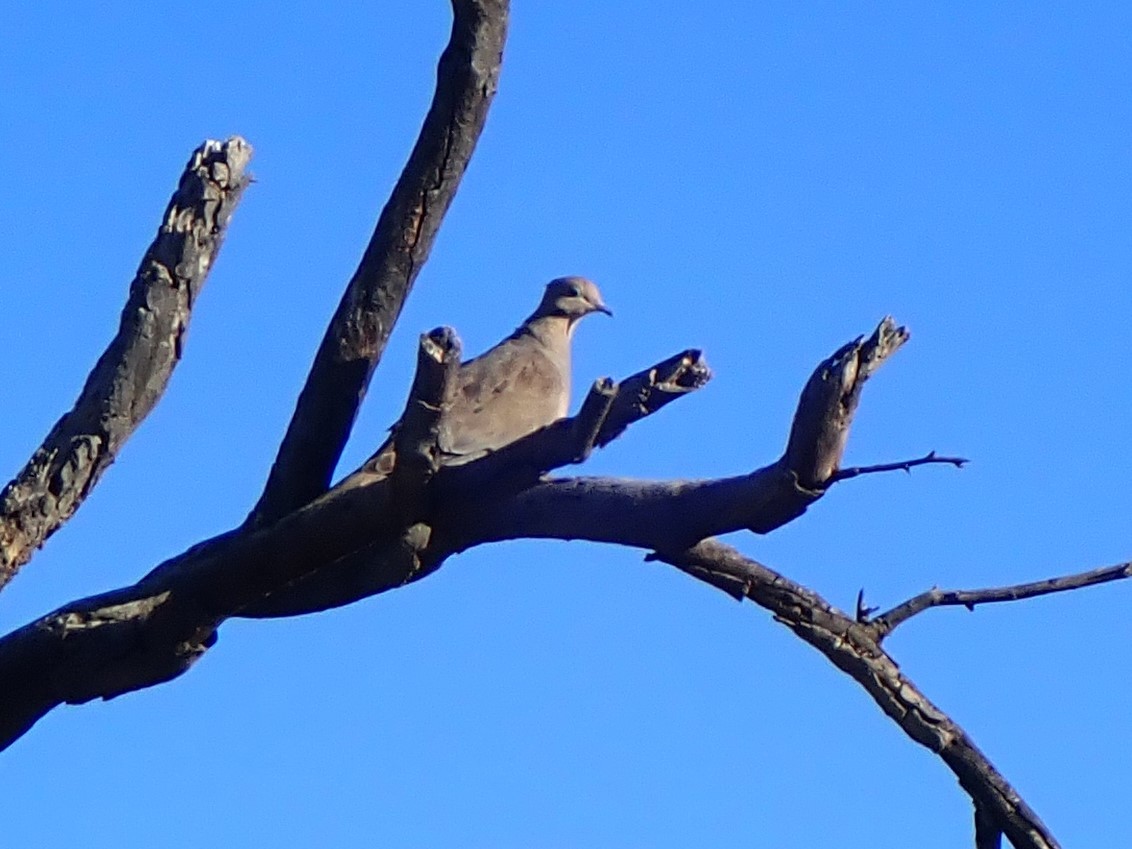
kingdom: Animalia
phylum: Chordata
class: Aves
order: Columbiformes
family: Columbidae
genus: Zenaida
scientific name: Zenaida macroura
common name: Mourning dove
